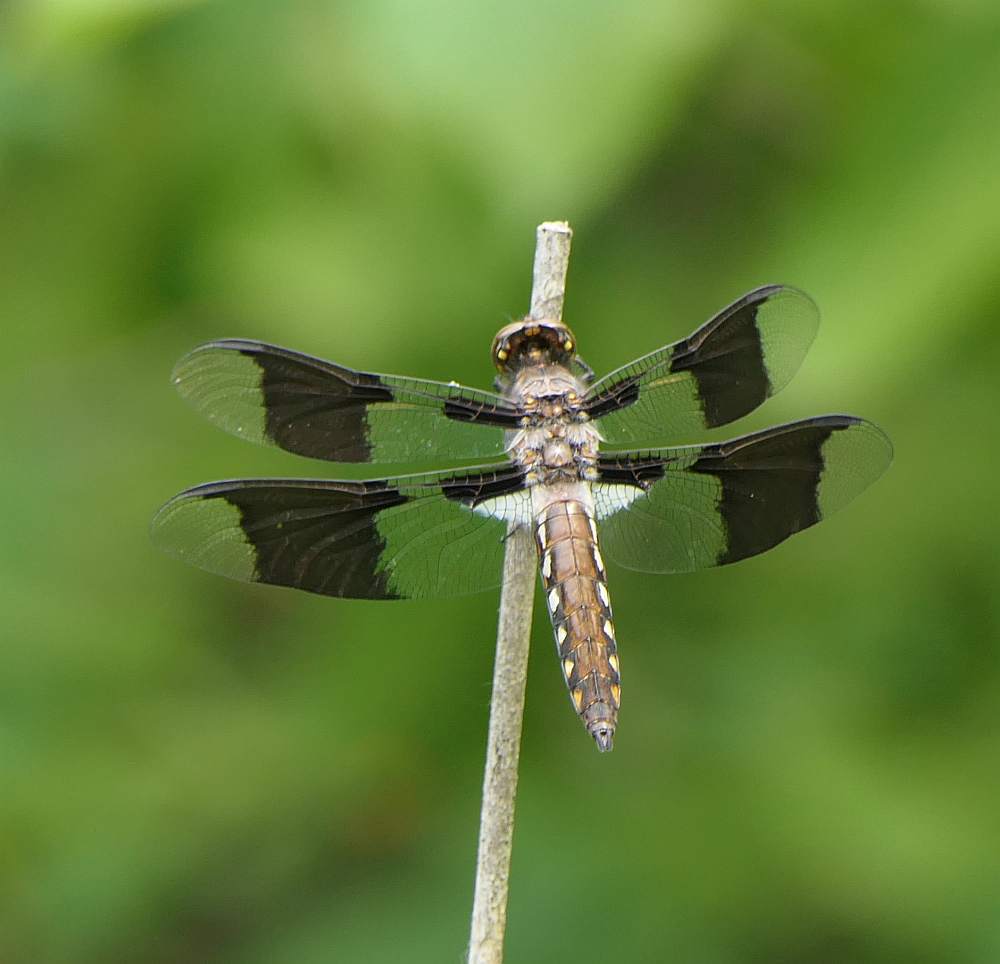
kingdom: Animalia
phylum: Arthropoda
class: Insecta
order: Odonata
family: Libellulidae
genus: Plathemis
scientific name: Plathemis lydia
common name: Common whitetail
